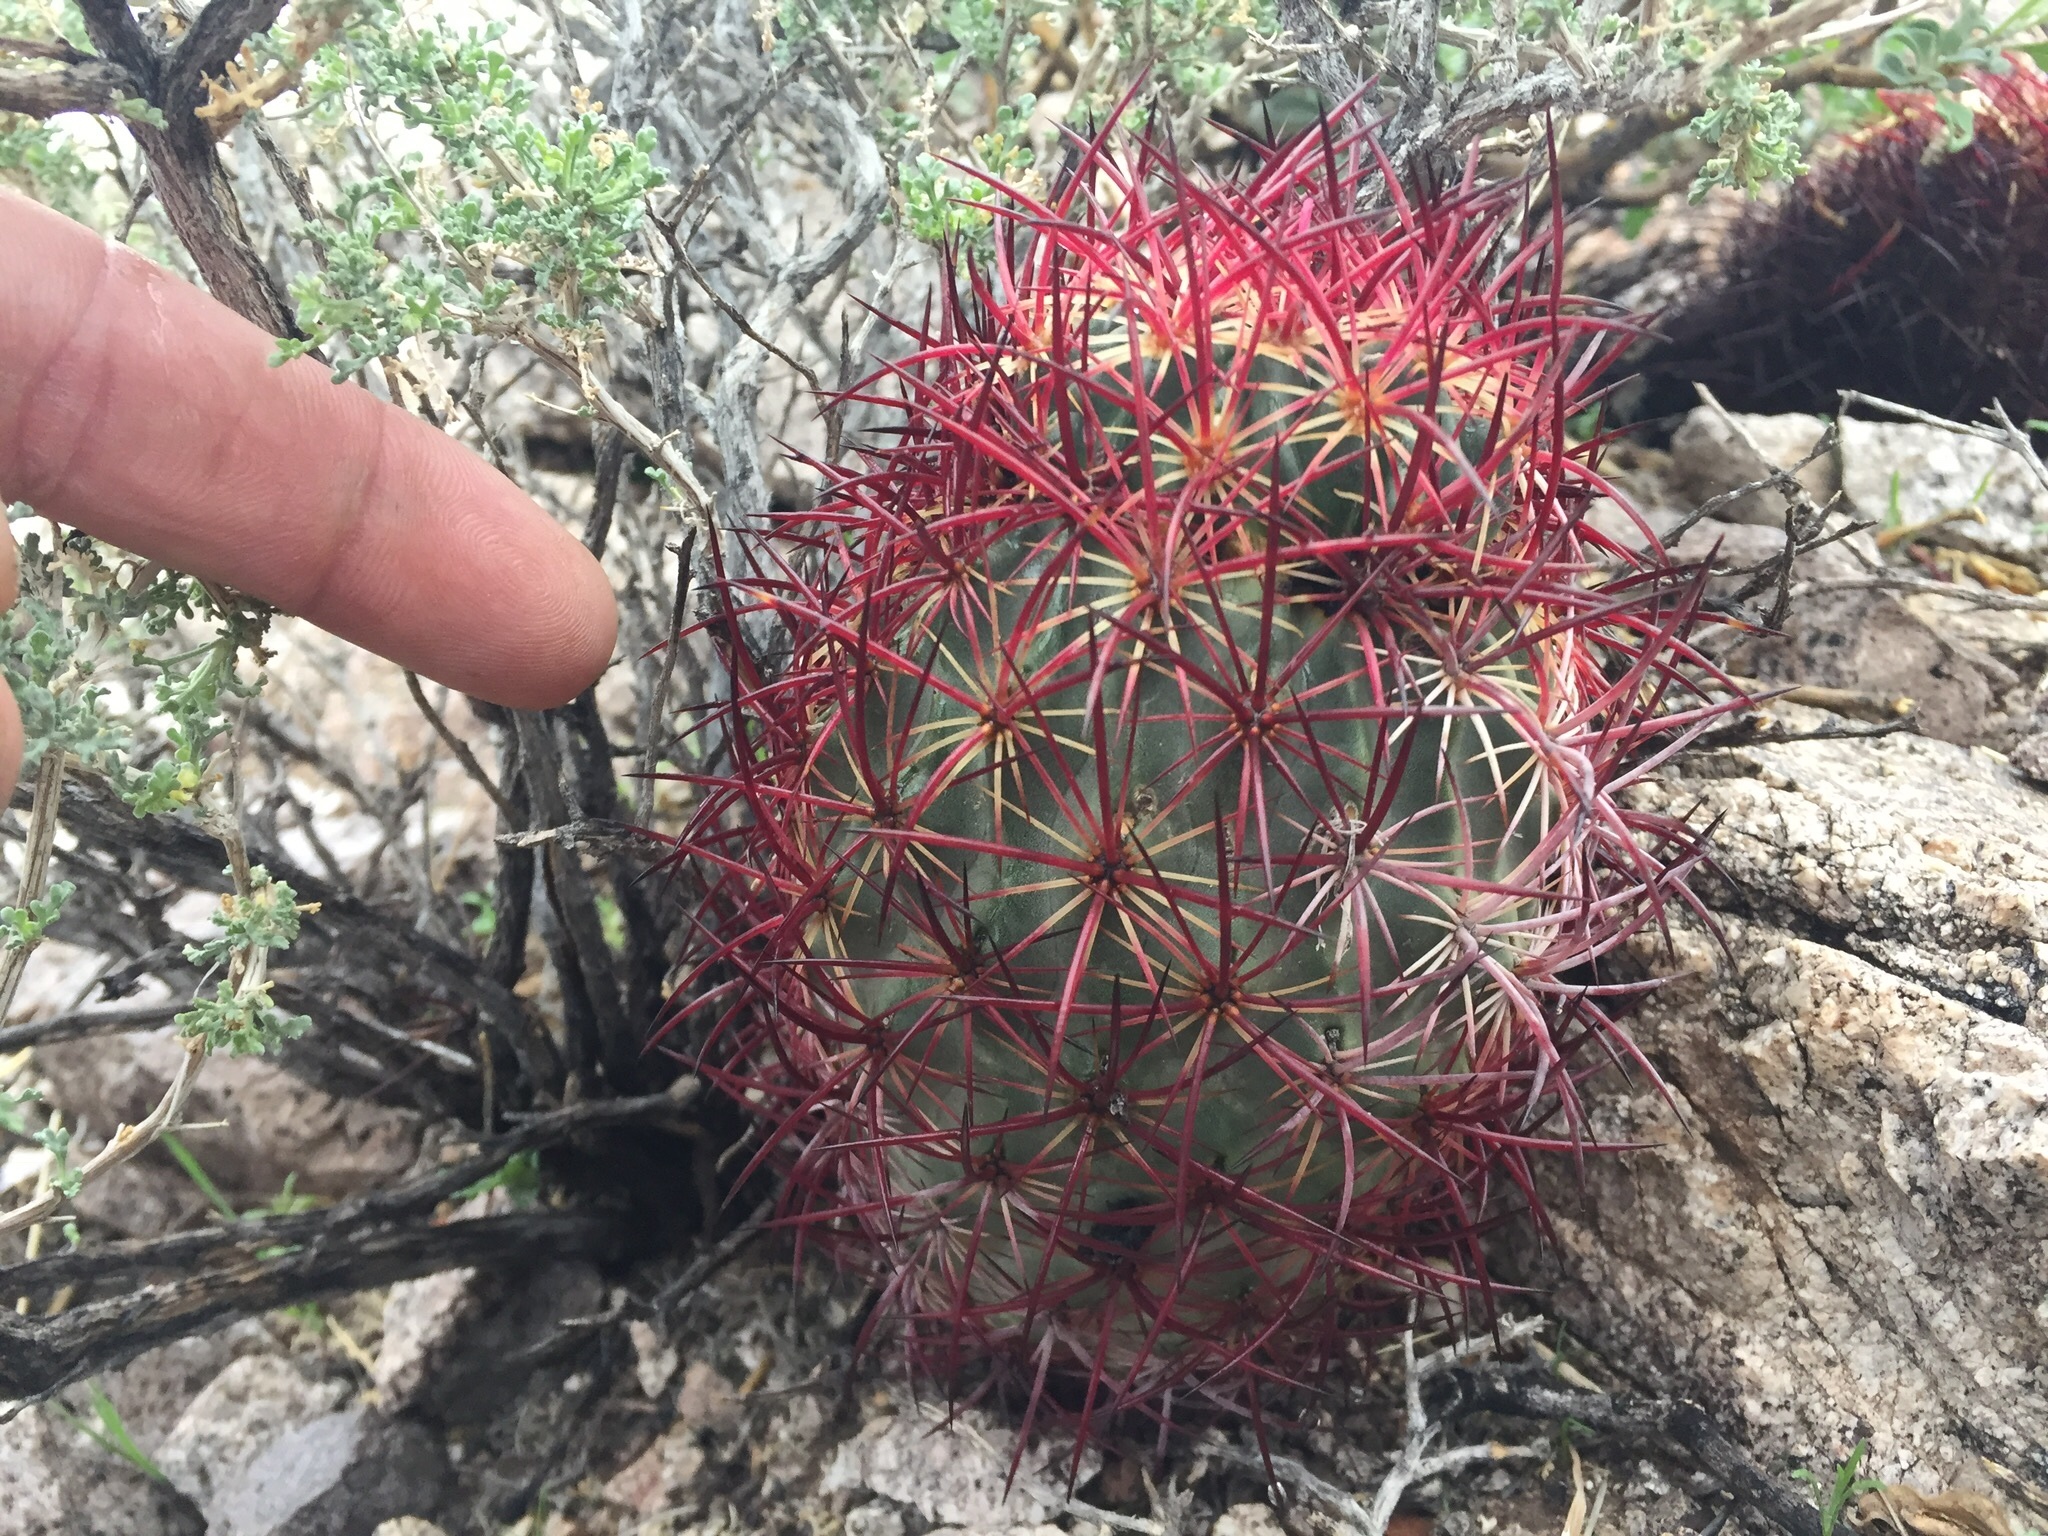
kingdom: Plantae
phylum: Tracheophyta
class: Magnoliopsida
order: Caryophyllales
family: Cactaceae
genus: Sclerocactus
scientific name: Sclerocactus johnsonii
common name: Eight-spine fishhook cactus
